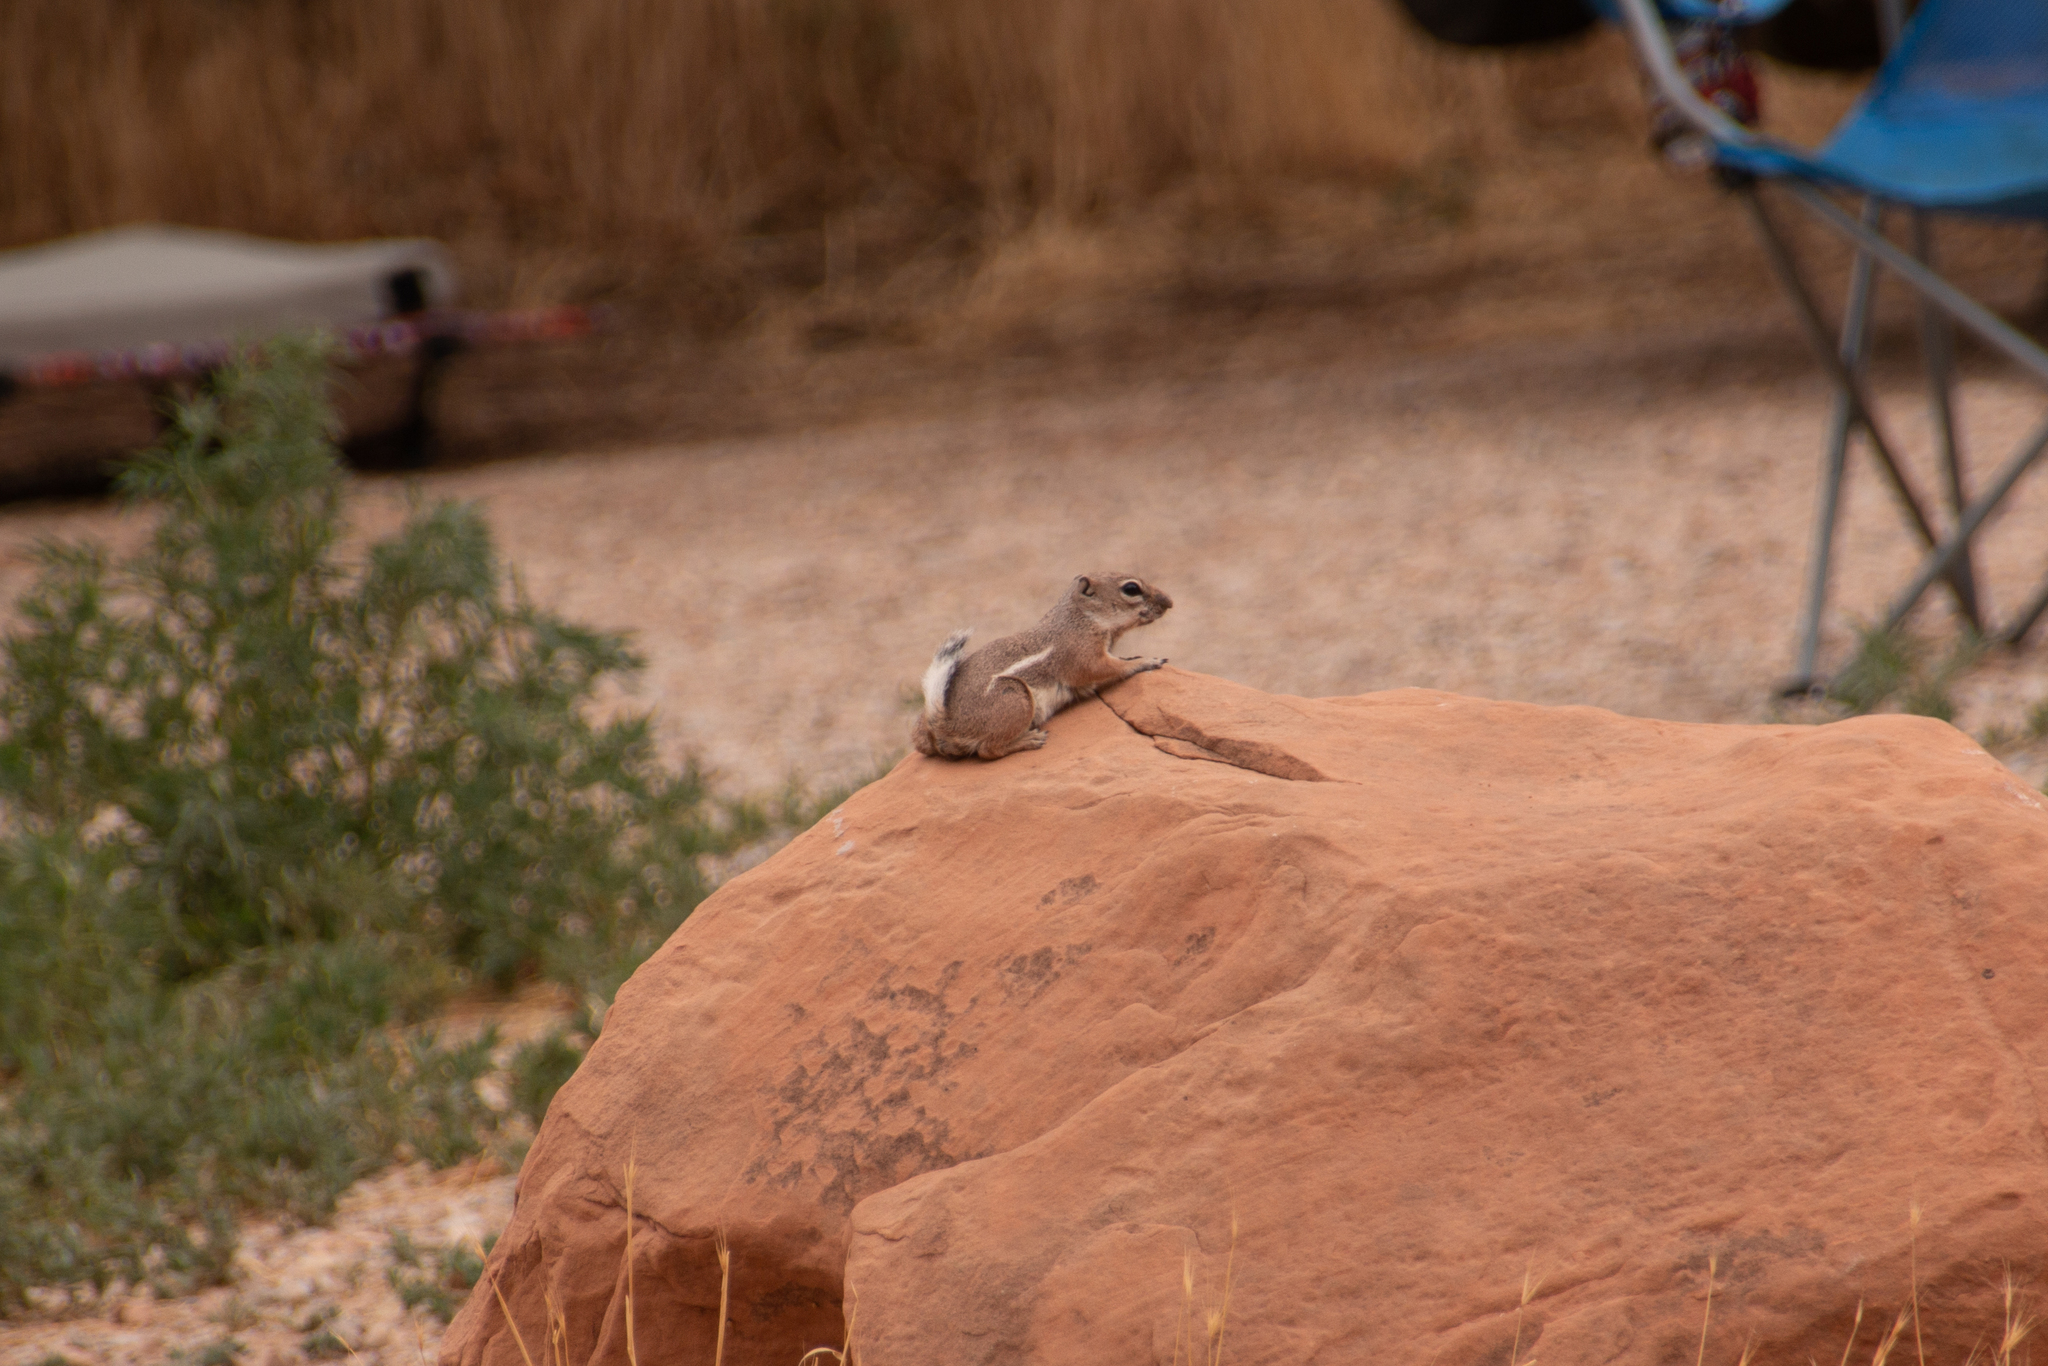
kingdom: Animalia
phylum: Chordata
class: Mammalia
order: Rodentia
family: Sciuridae
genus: Ammospermophilus
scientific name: Ammospermophilus leucurus
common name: White-tailed antelope squirrel
